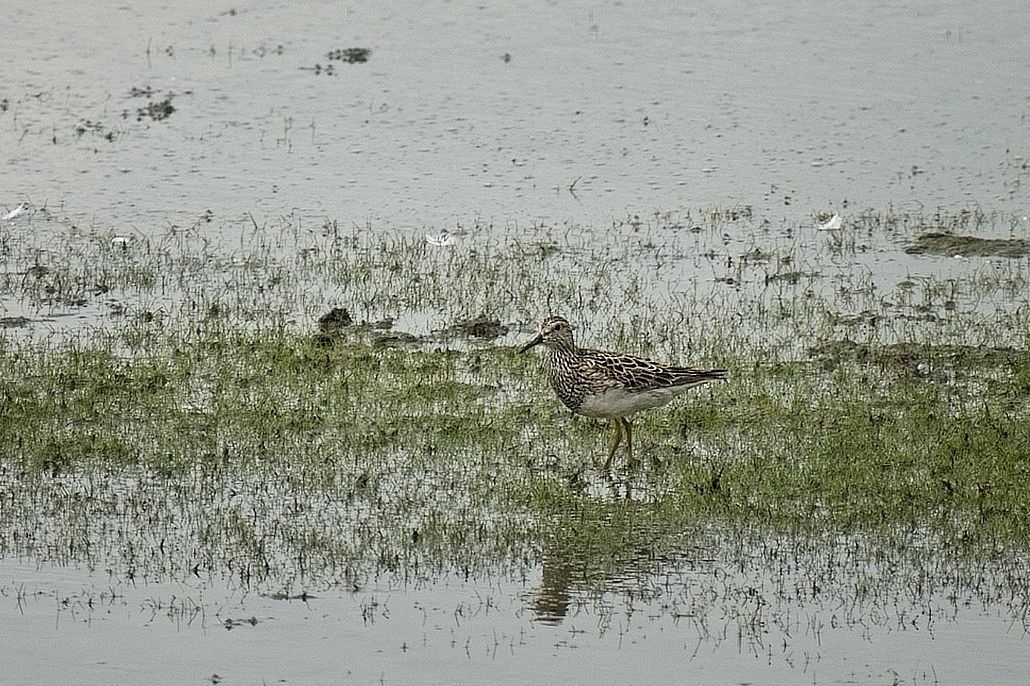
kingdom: Animalia
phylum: Chordata
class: Aves
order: Charadriiformes
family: Scolopacidae
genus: Calidris
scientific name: Calidris melanotos
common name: Pectoral sandpiper
